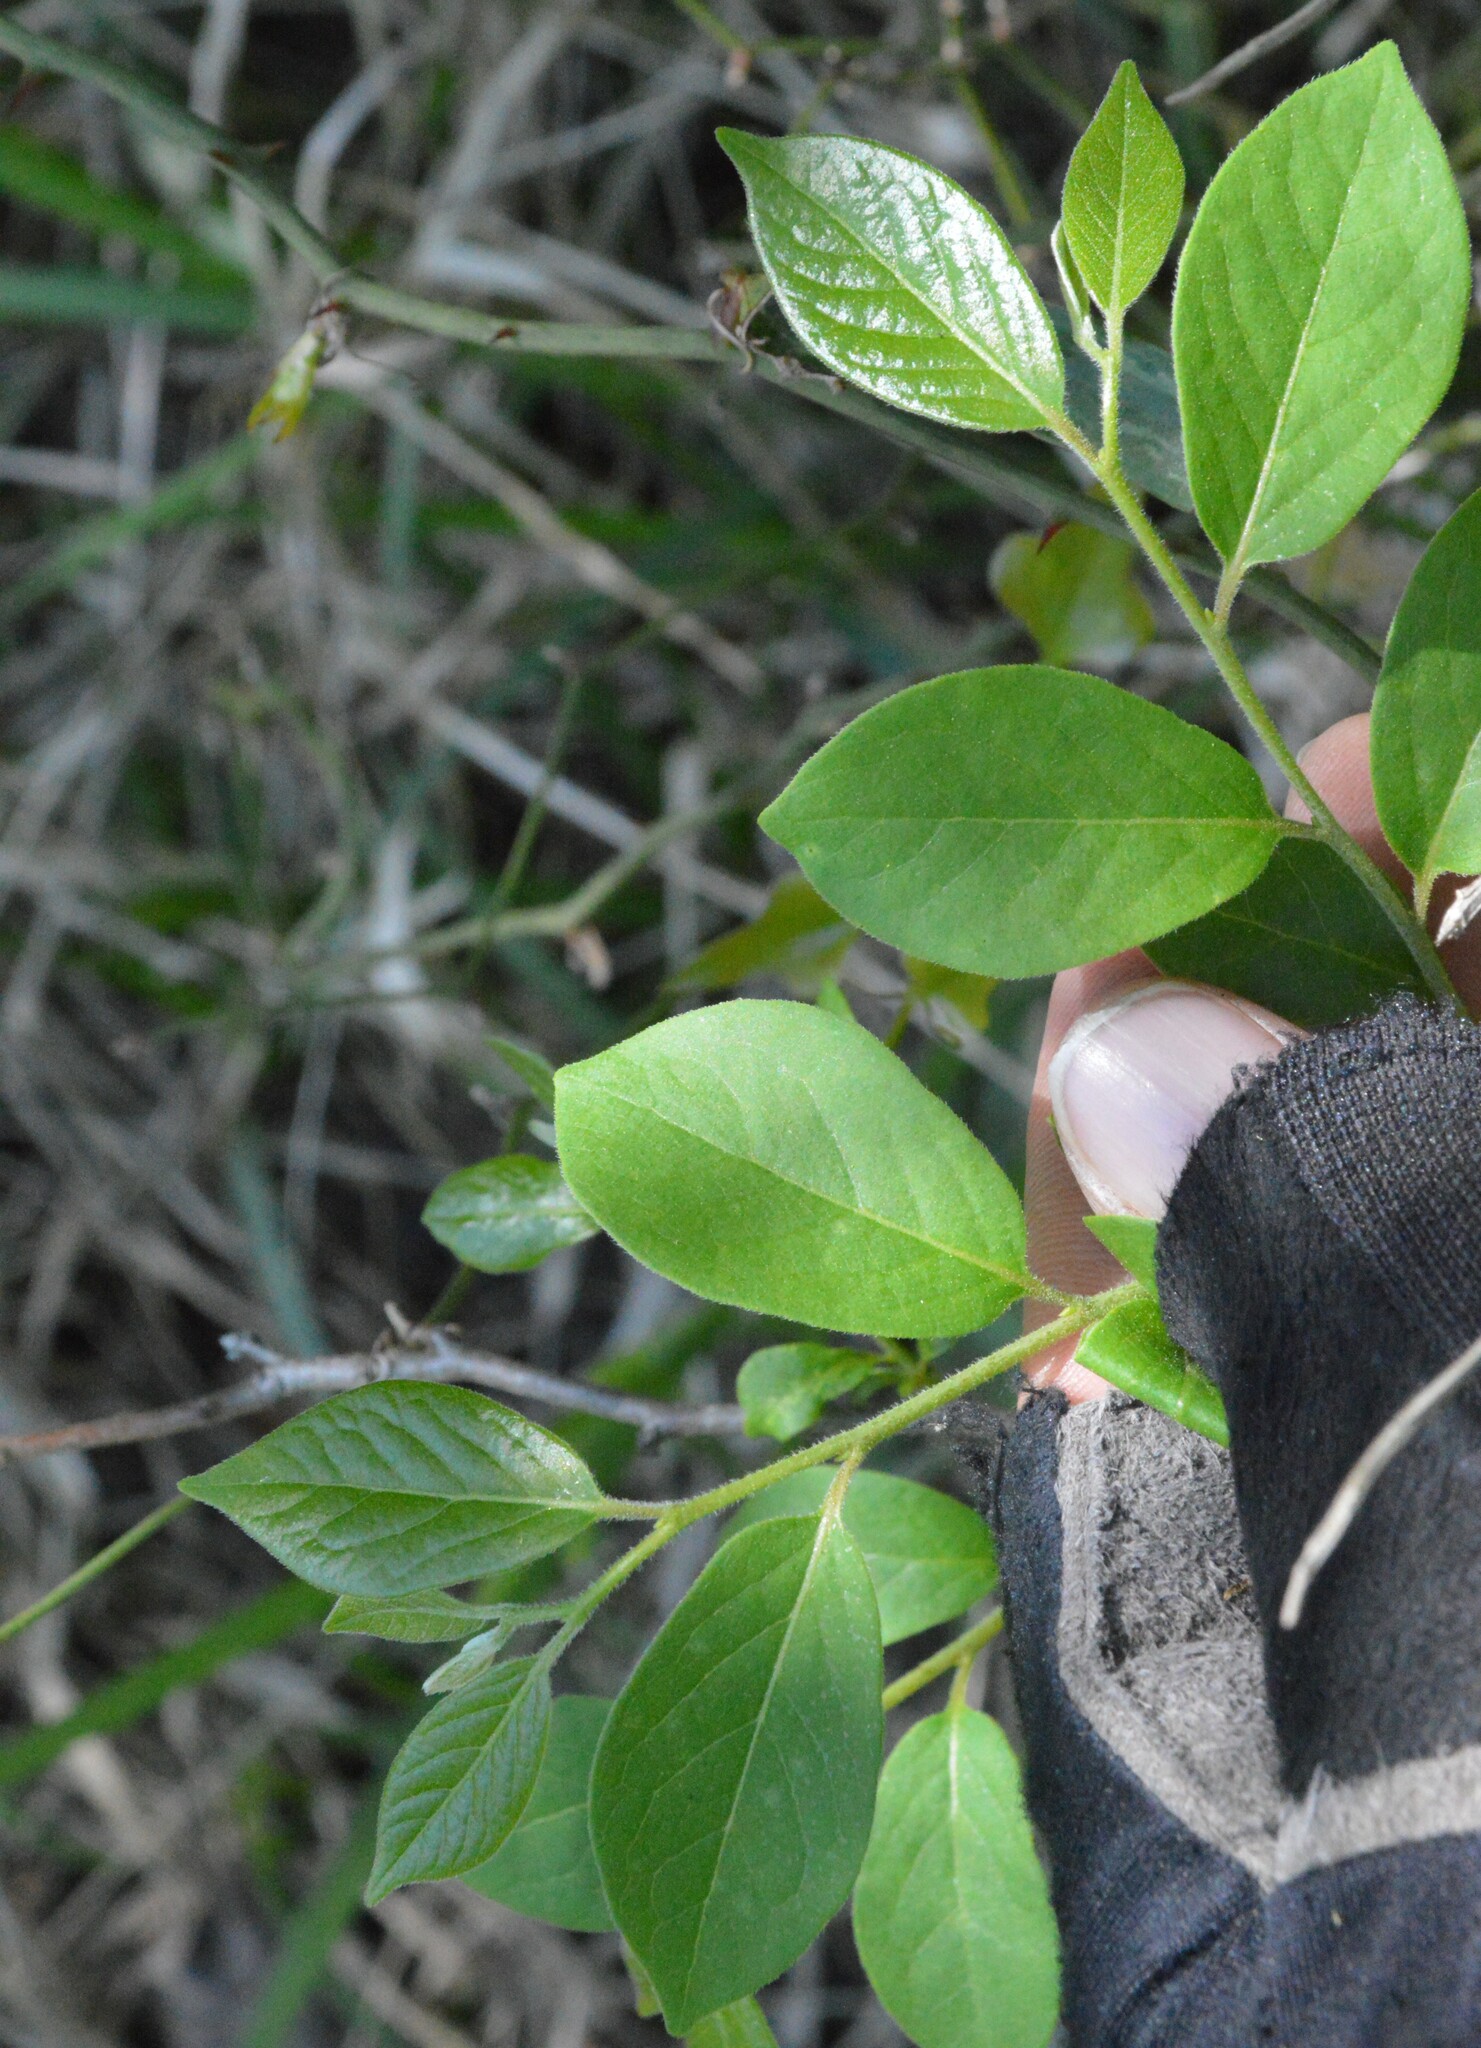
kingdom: Plantae
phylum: Tracheophyta
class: Magnoliopsida
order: Ericales
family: Ebenaceae
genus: Diospyros
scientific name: Diospyros virginiana
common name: Persimmon
